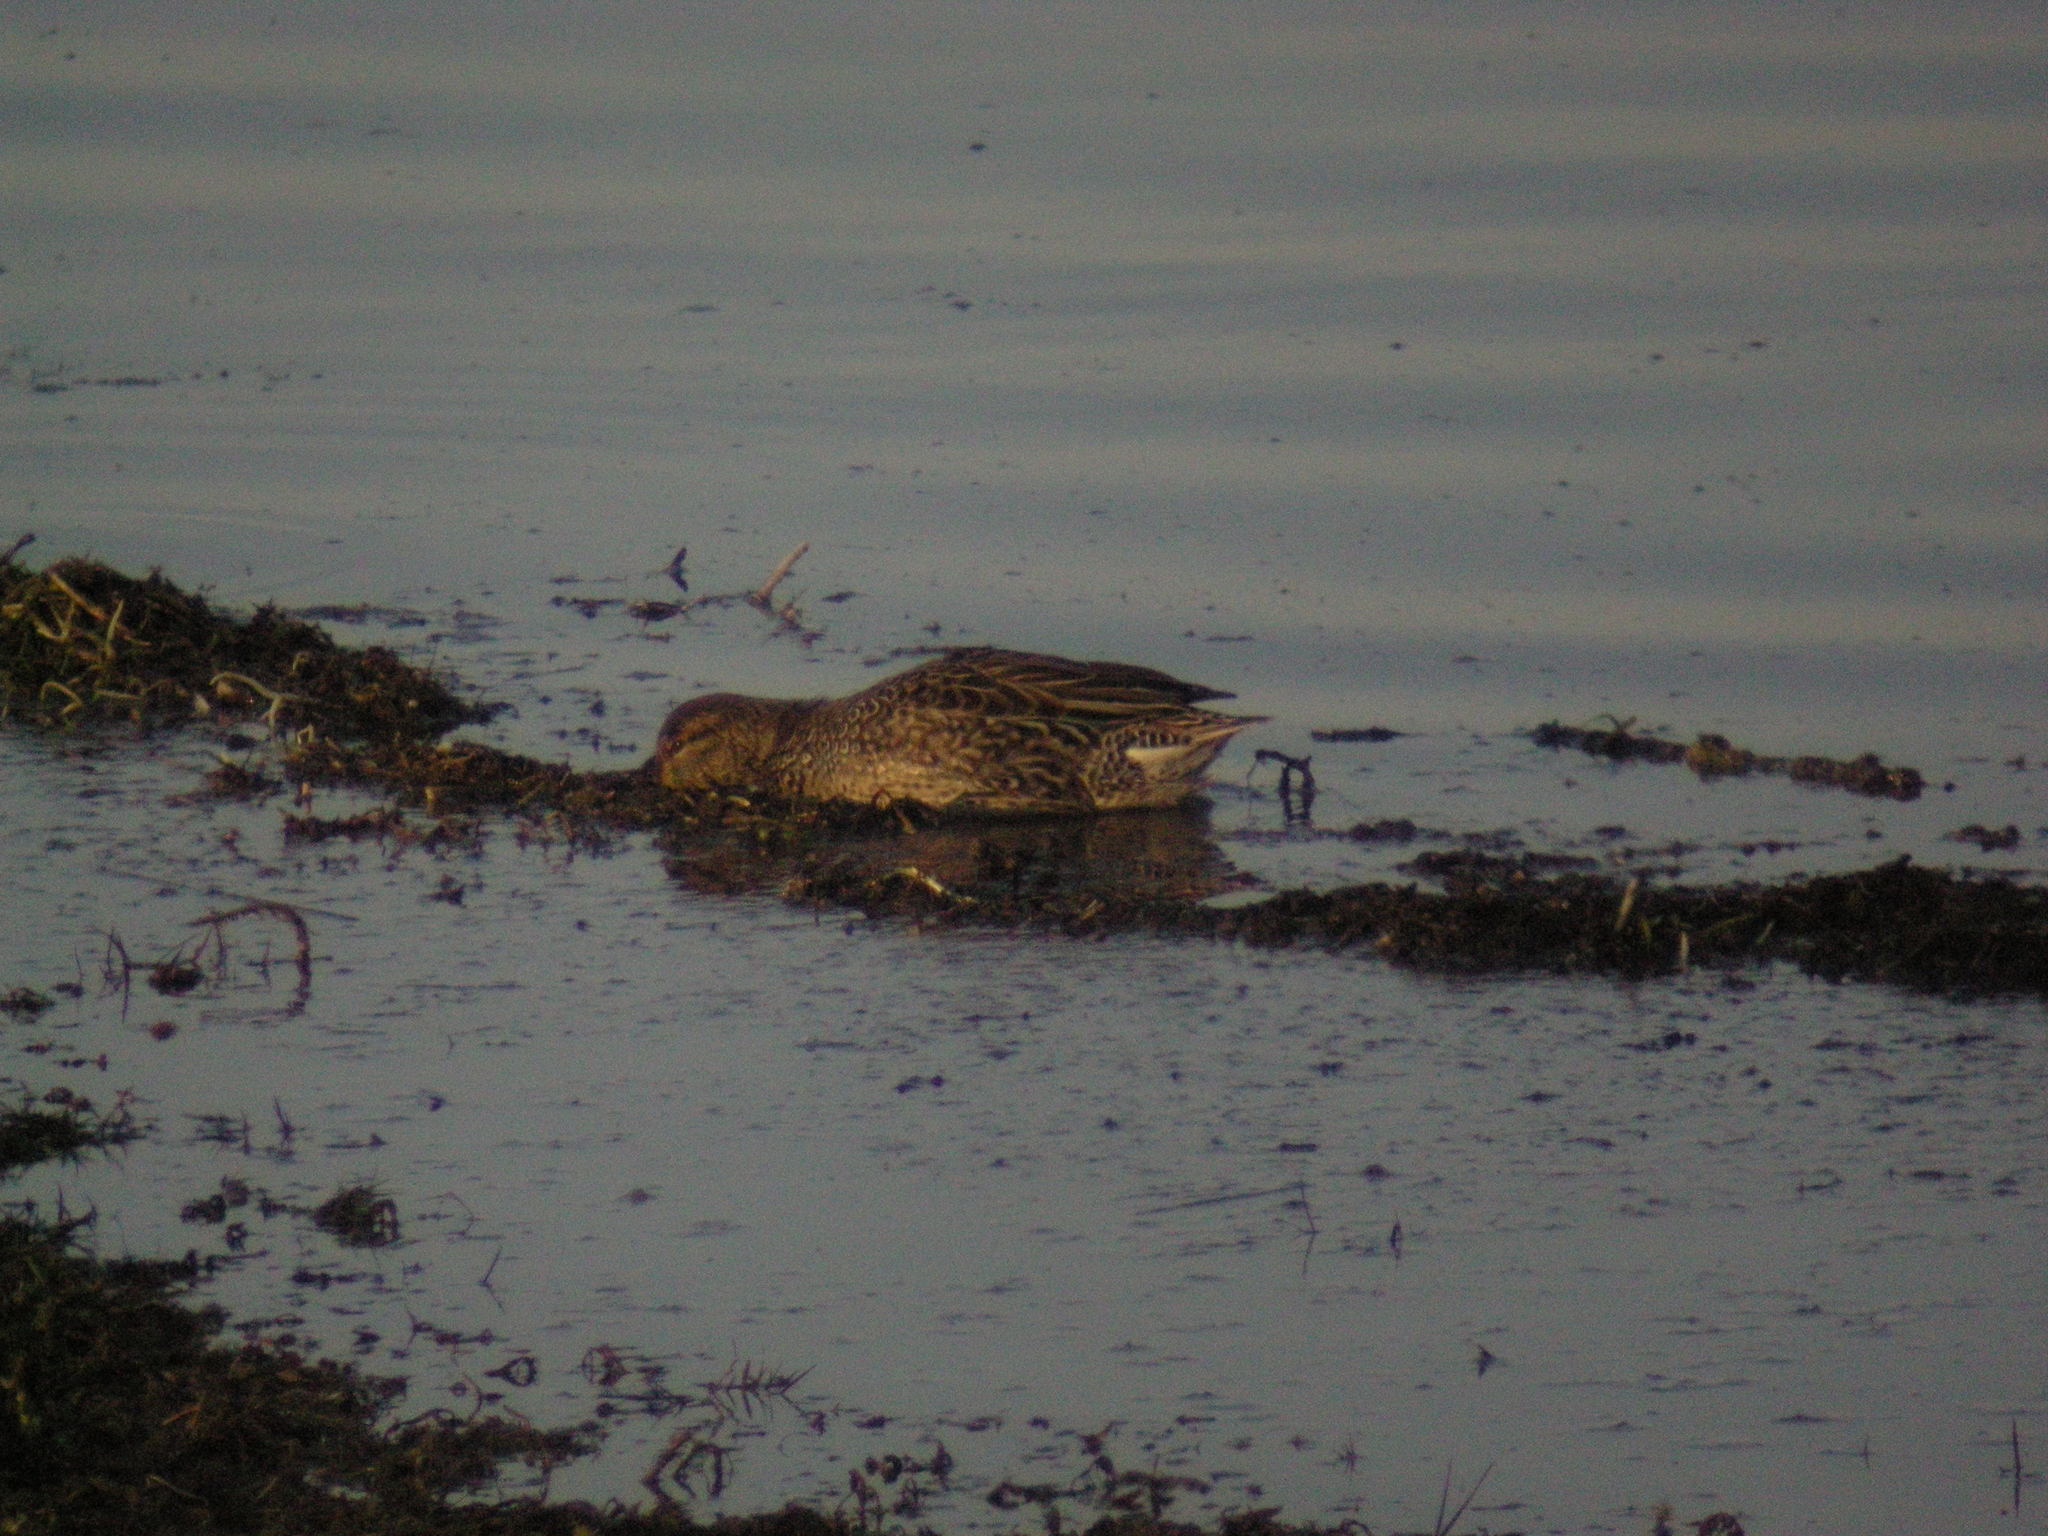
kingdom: Animalia
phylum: Chordata
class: Aves
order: Anseriformes
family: Anatidae
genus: Anas
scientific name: Anas crecca
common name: Eurasian teal
